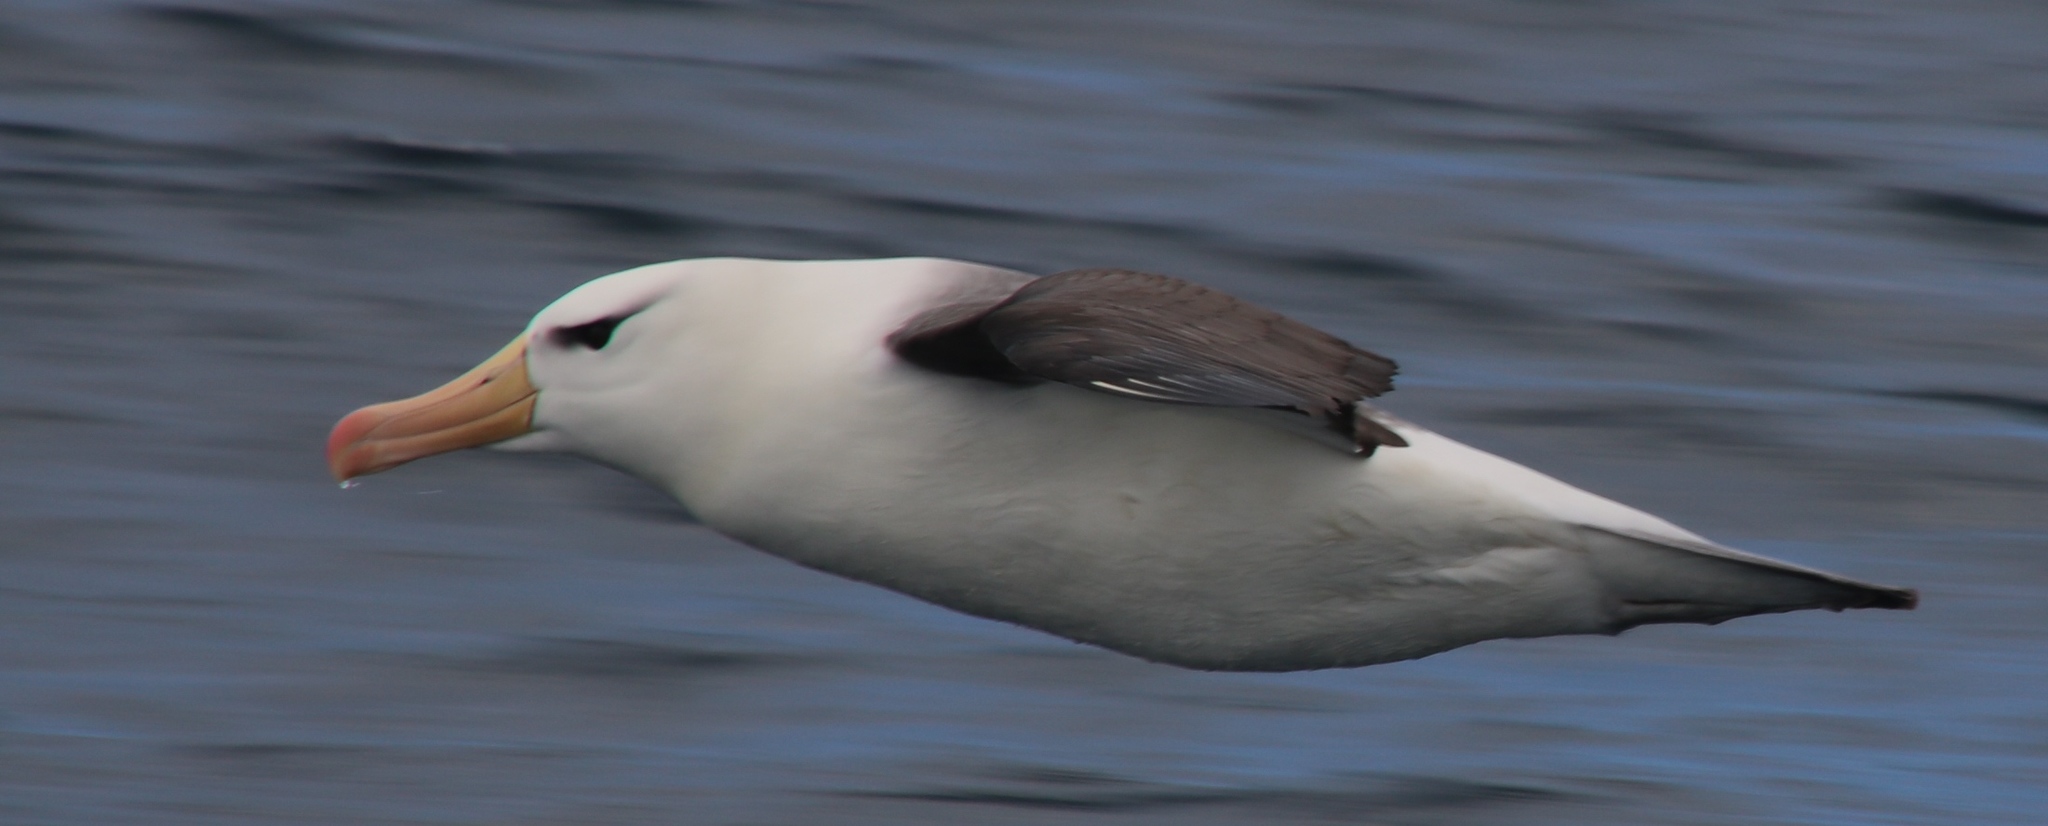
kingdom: Animalia
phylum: Chordata
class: Aves
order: Procellariiformes
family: Diomedeidae
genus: Thalassarche
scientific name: Thalassarche melanophris
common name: Black-browed albatross
